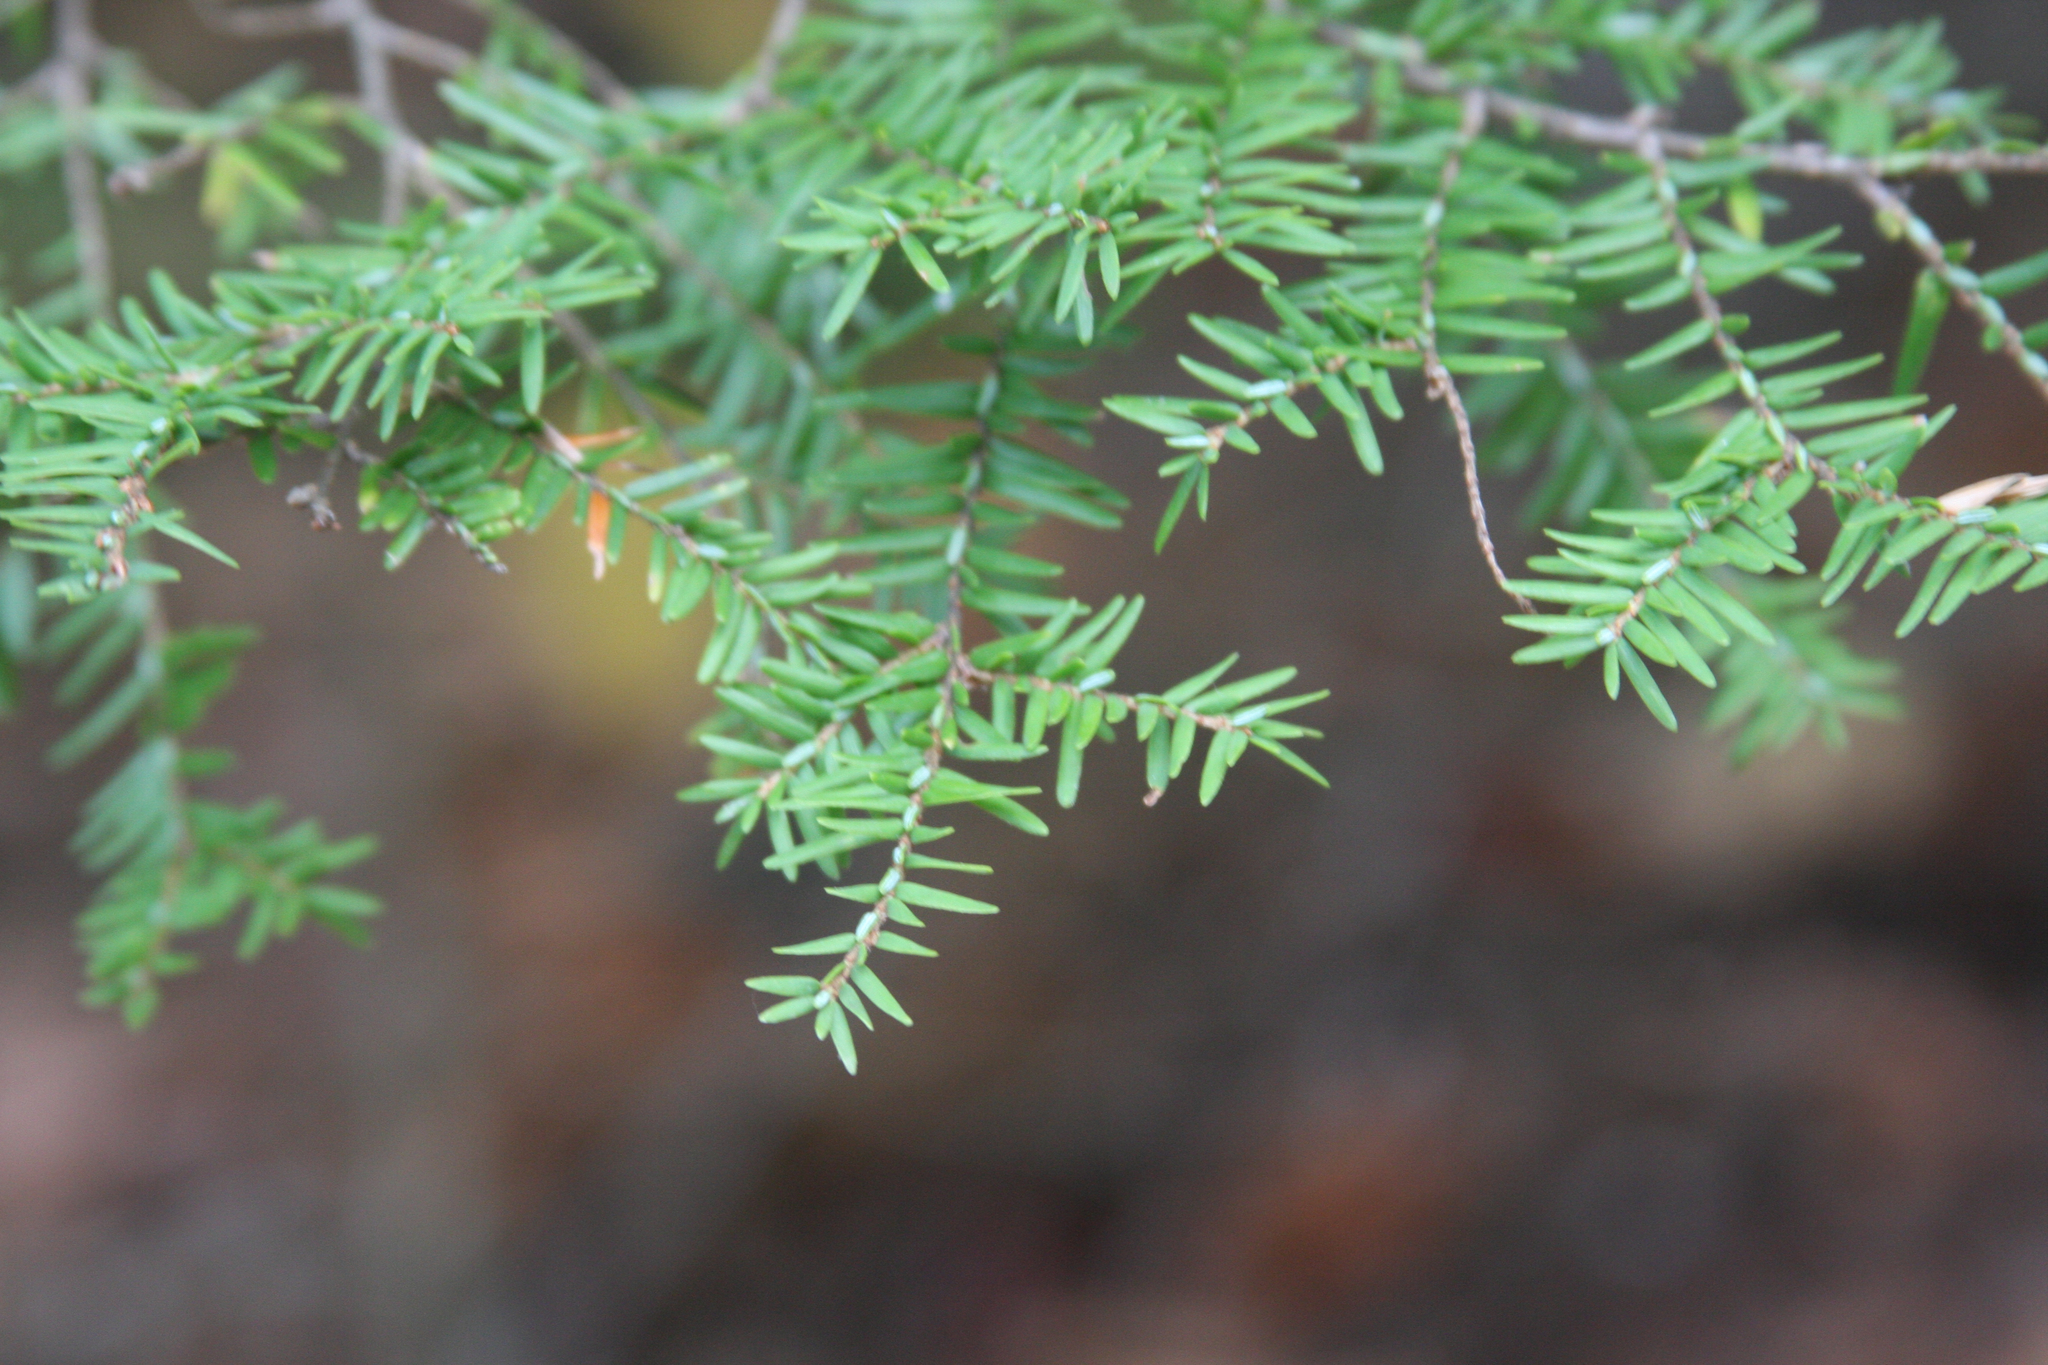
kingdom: Plantae
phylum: Tracheophyta
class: Pinopsida
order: Pinales
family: Pinaceae
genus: Tsuga
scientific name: Tsuga canadensis
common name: Eastern hemlock
